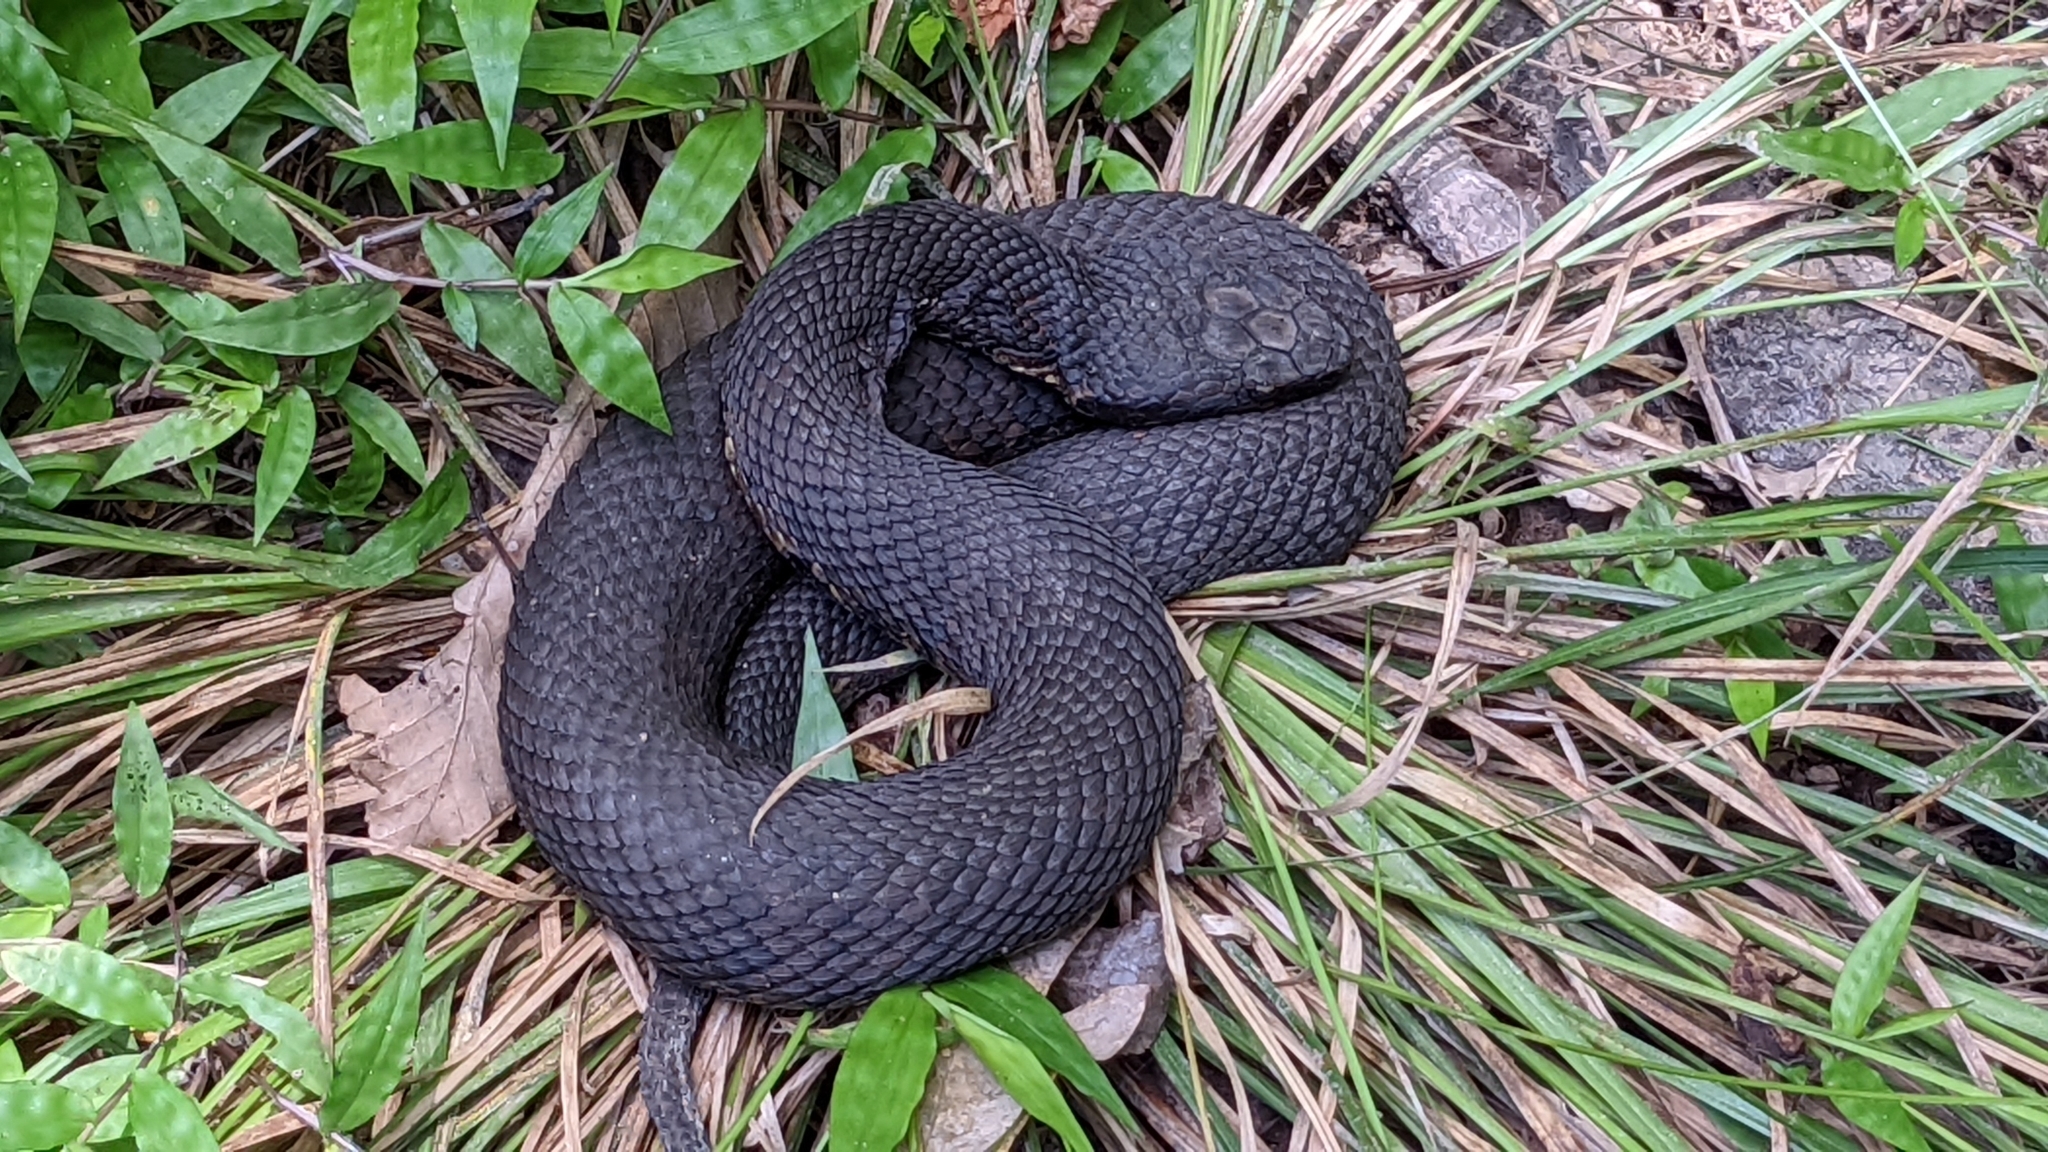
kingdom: Animalia
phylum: Chordata
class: Squamata
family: Viperidae
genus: Agkistrodon
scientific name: Agkistrodon piscivorus
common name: Cottonmouth
